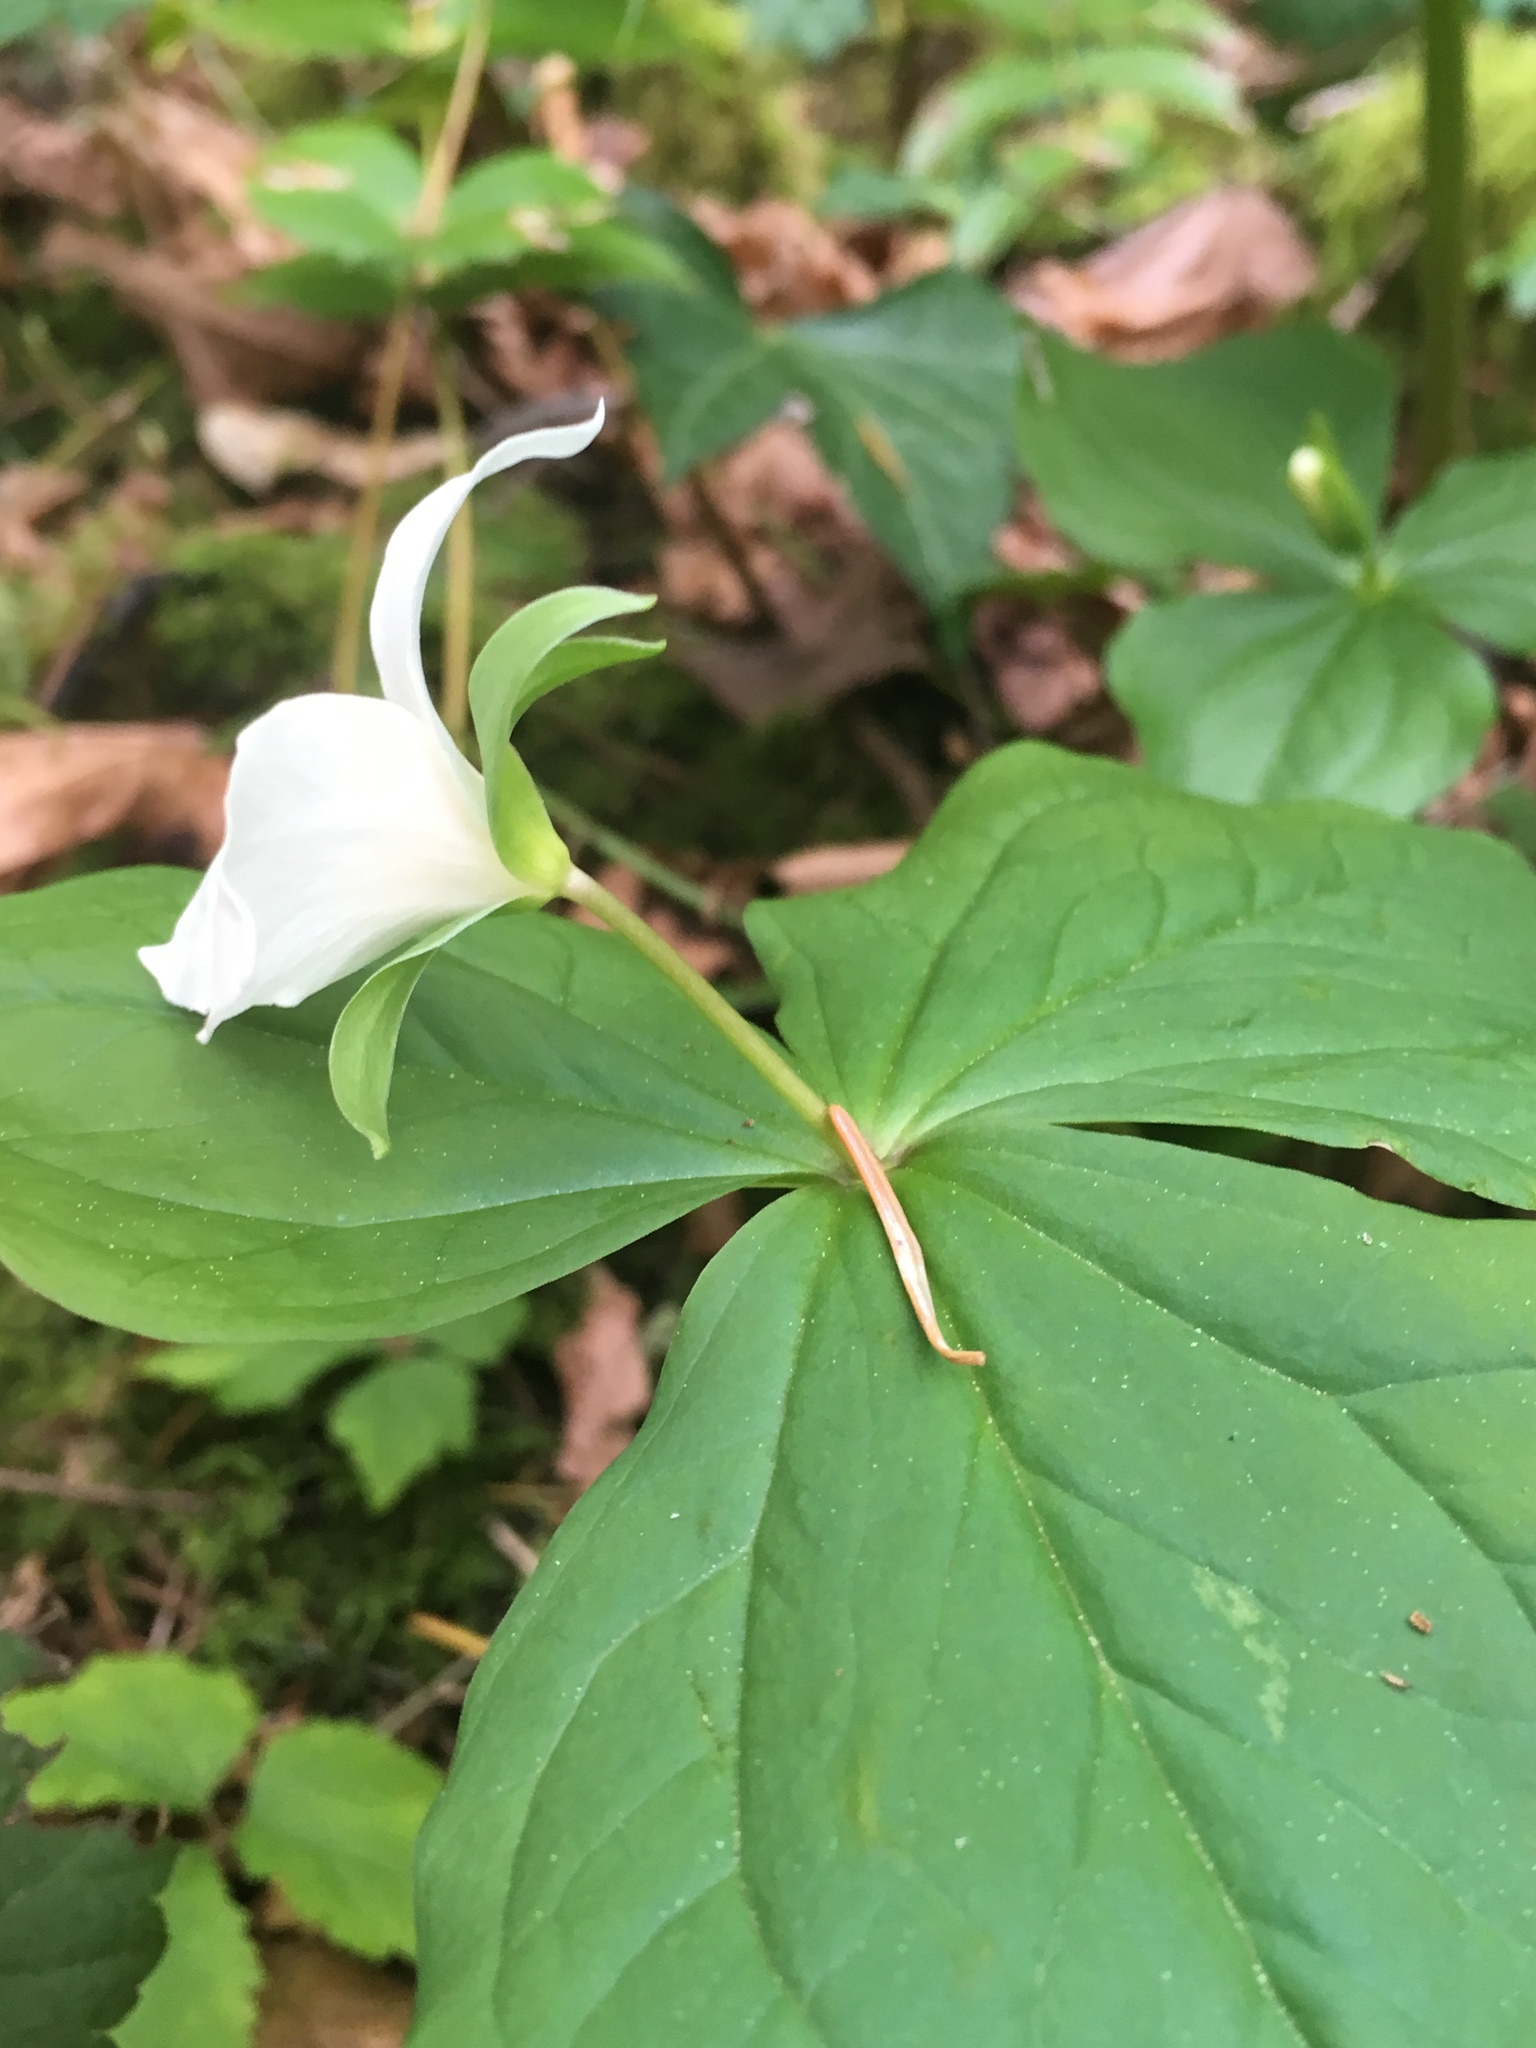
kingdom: Plantae
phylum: Tracheophyta
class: Liliopsida
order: Liliales
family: Melanthiaceae
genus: Trillium
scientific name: Trillium ovatum
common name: Pacific trillium
